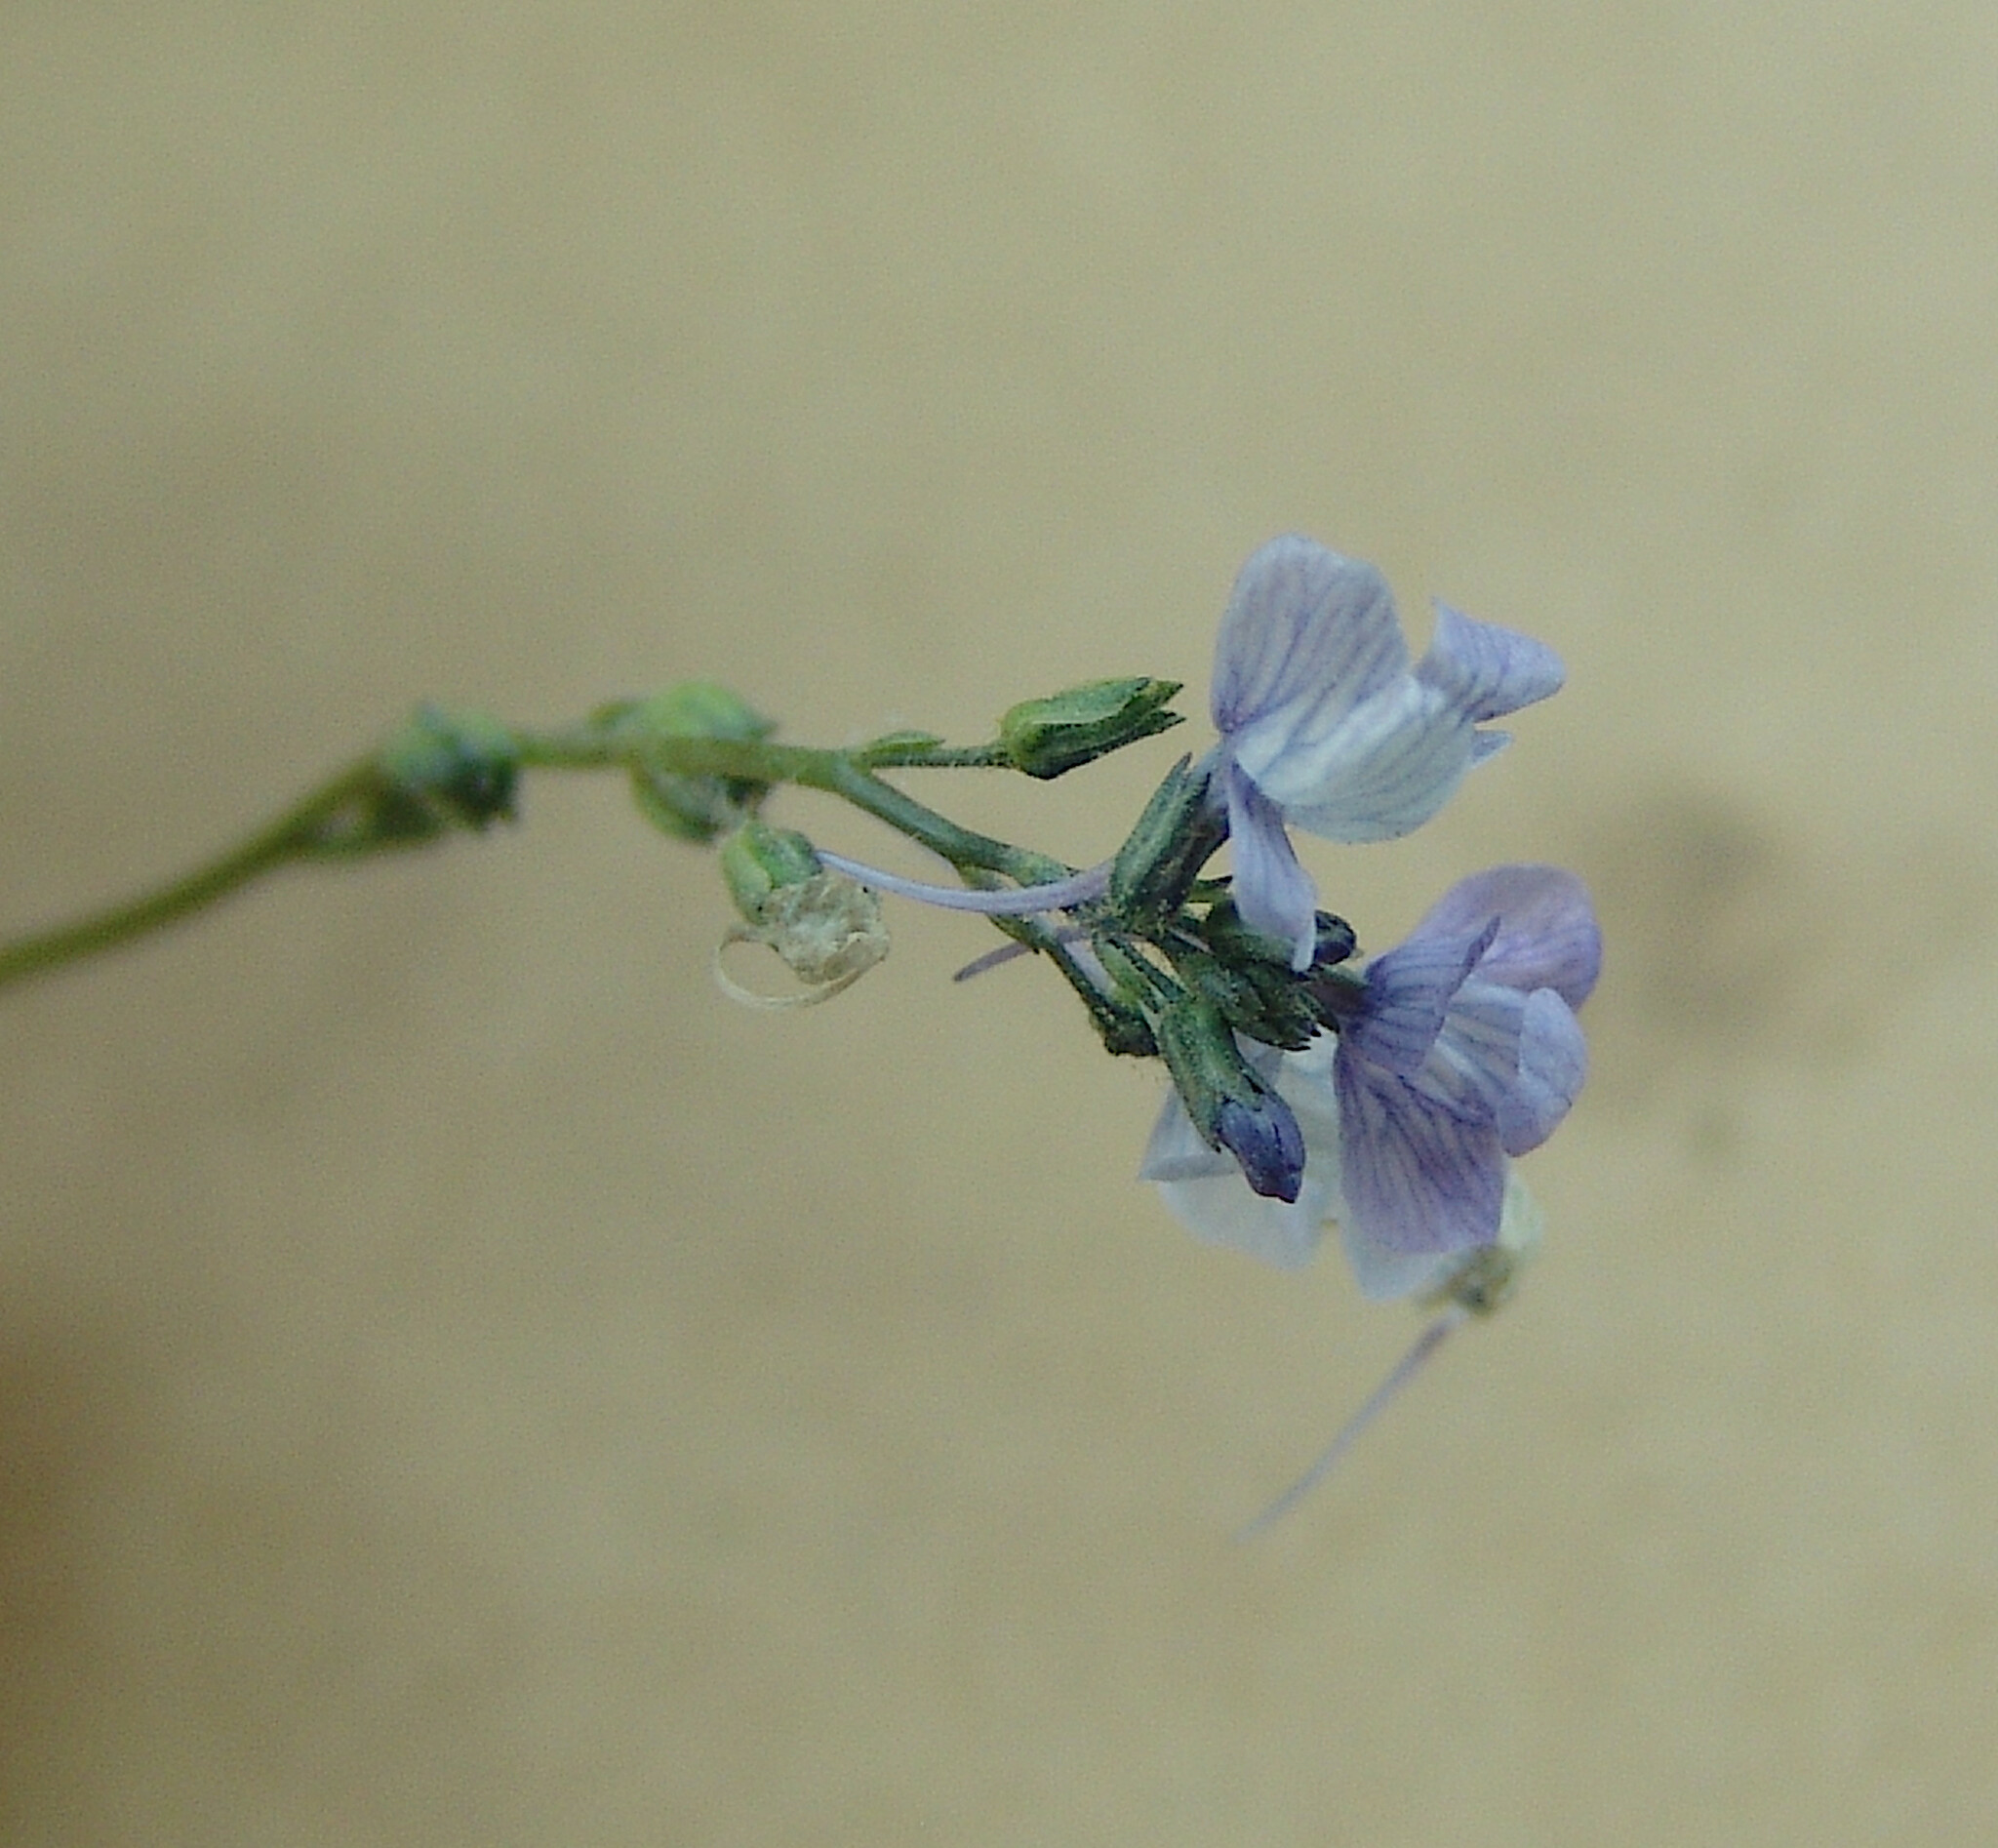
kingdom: Plantae
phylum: Tracheophyta
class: Magnoliopsida
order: Lamiales
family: Plantaginaceae
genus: Nuttallanthus
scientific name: Nuttallanthus texanus
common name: Texas toadflax
